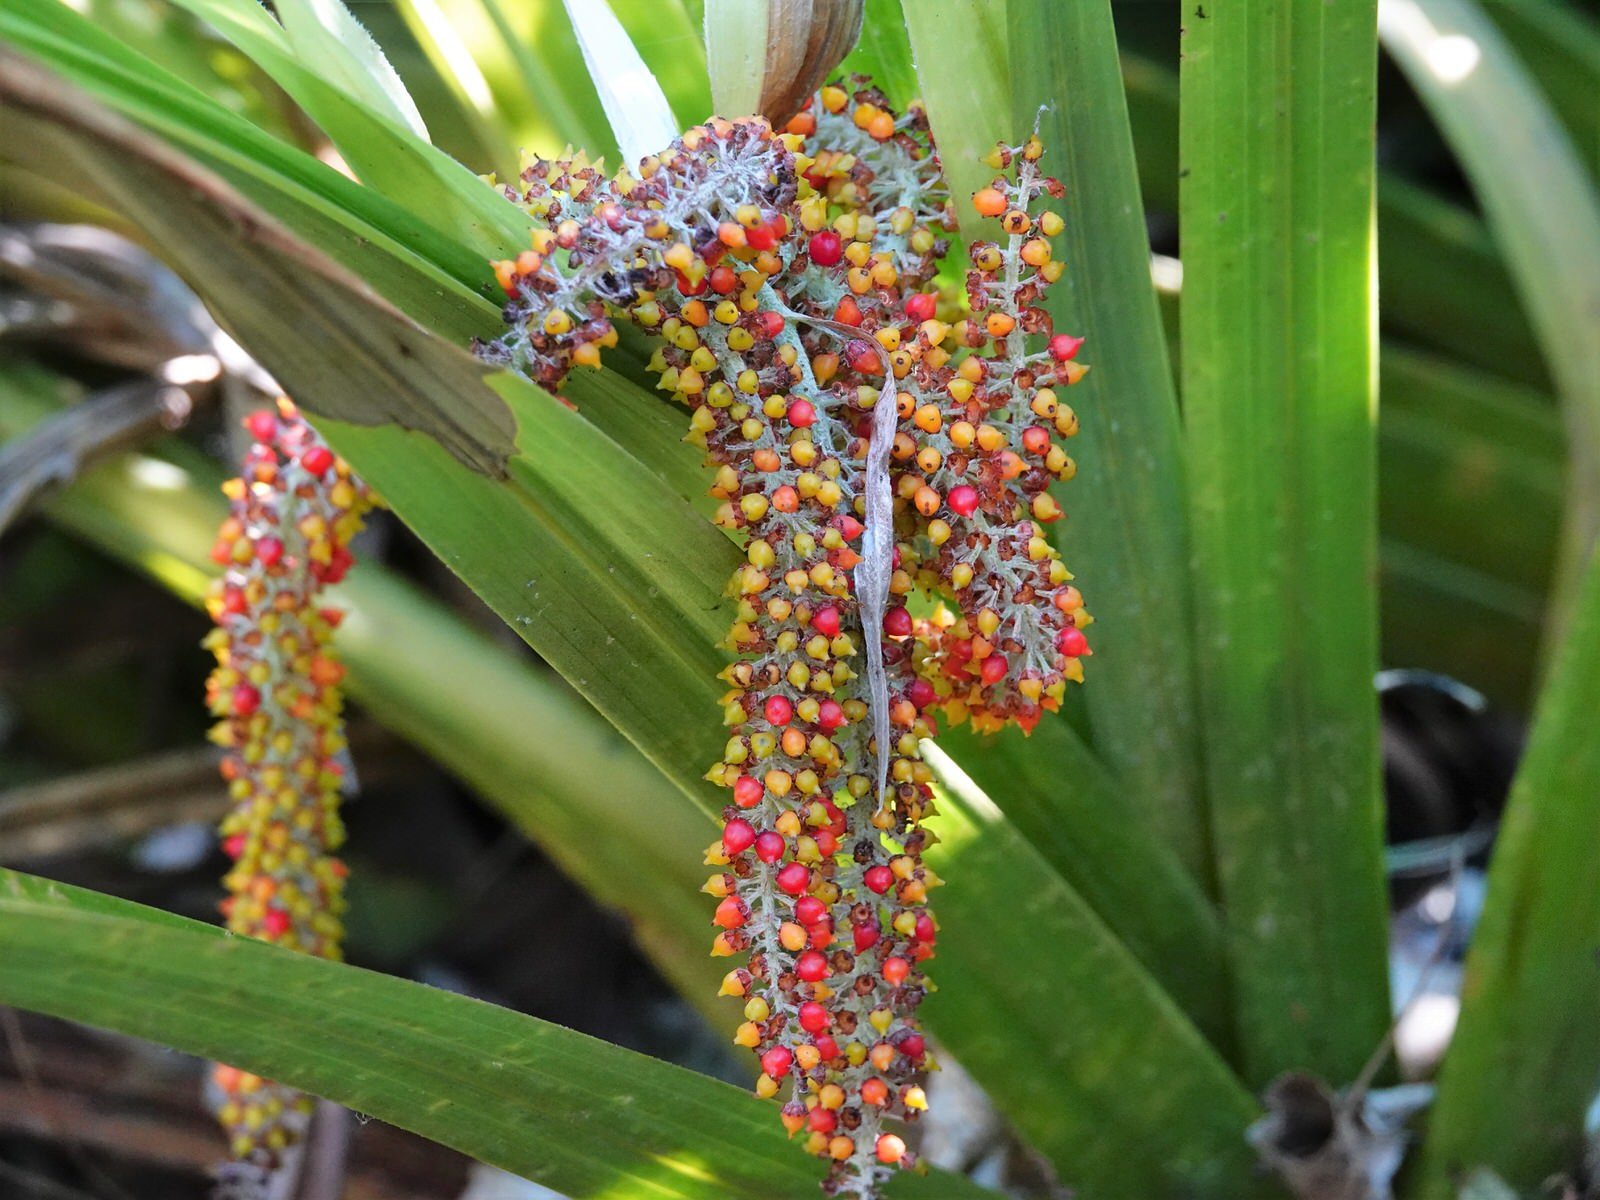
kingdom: Plantae
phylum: Tracheophyta
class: Liliopsida
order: Asparagales
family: Asteliaceae
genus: Astelia
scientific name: Astelia hastata
